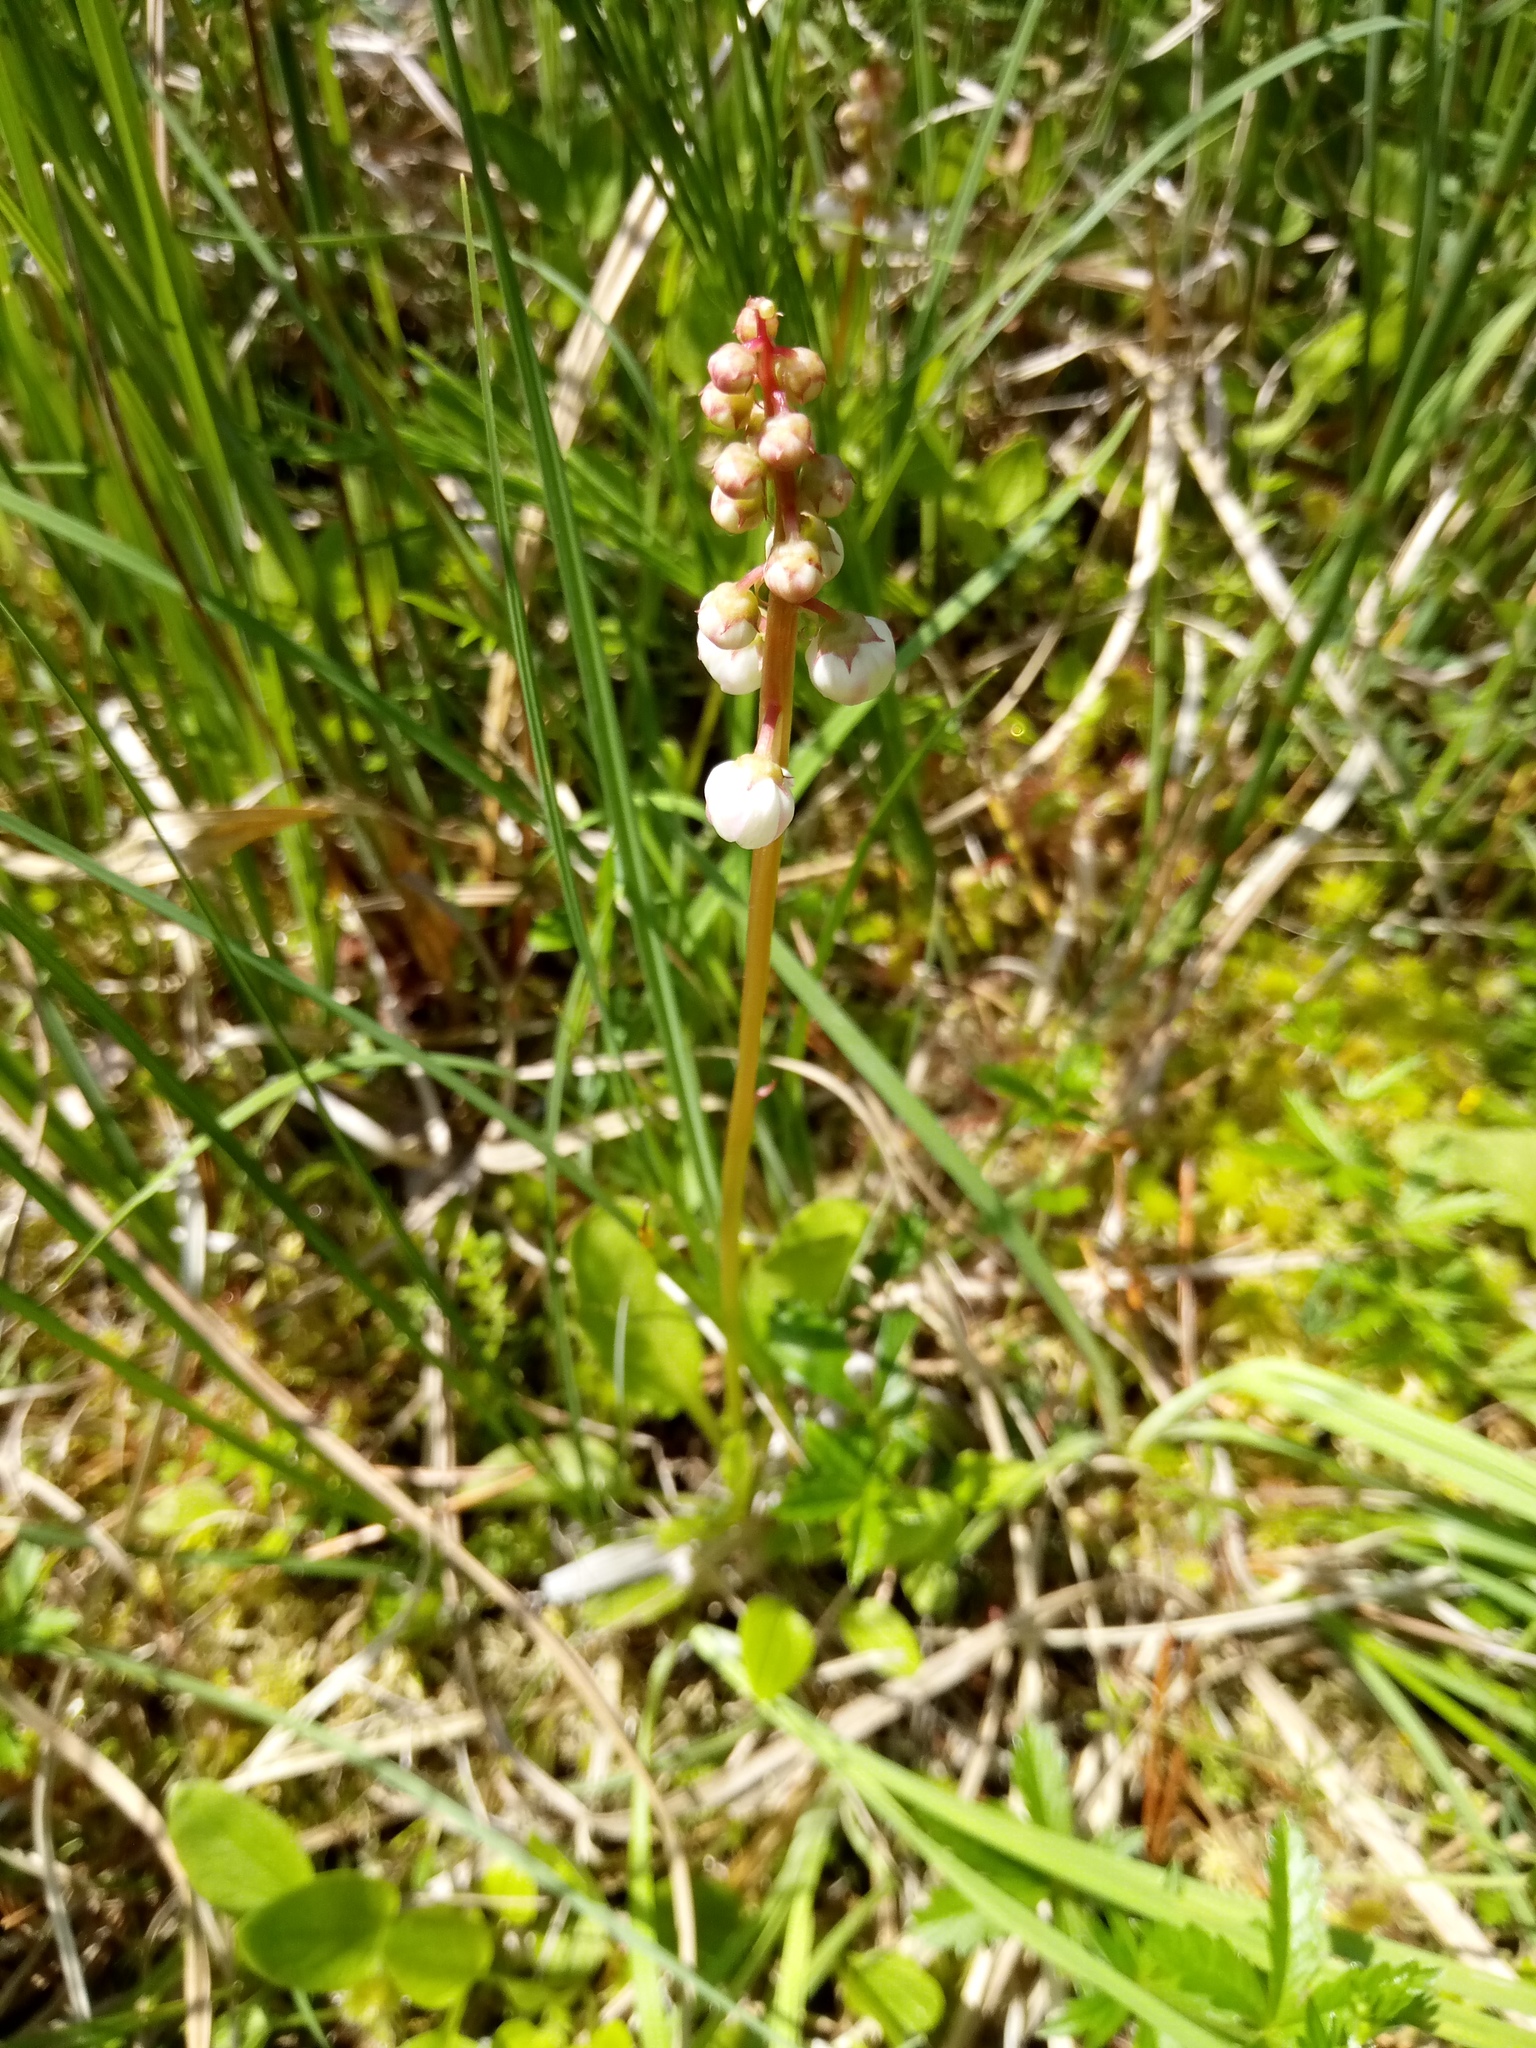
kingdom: Plantae
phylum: Tracheophyta
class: Magnoliopsida
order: Ericales
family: Ericaceae
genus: Pyrola
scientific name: Pyrola minor
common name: Common wintergreen
